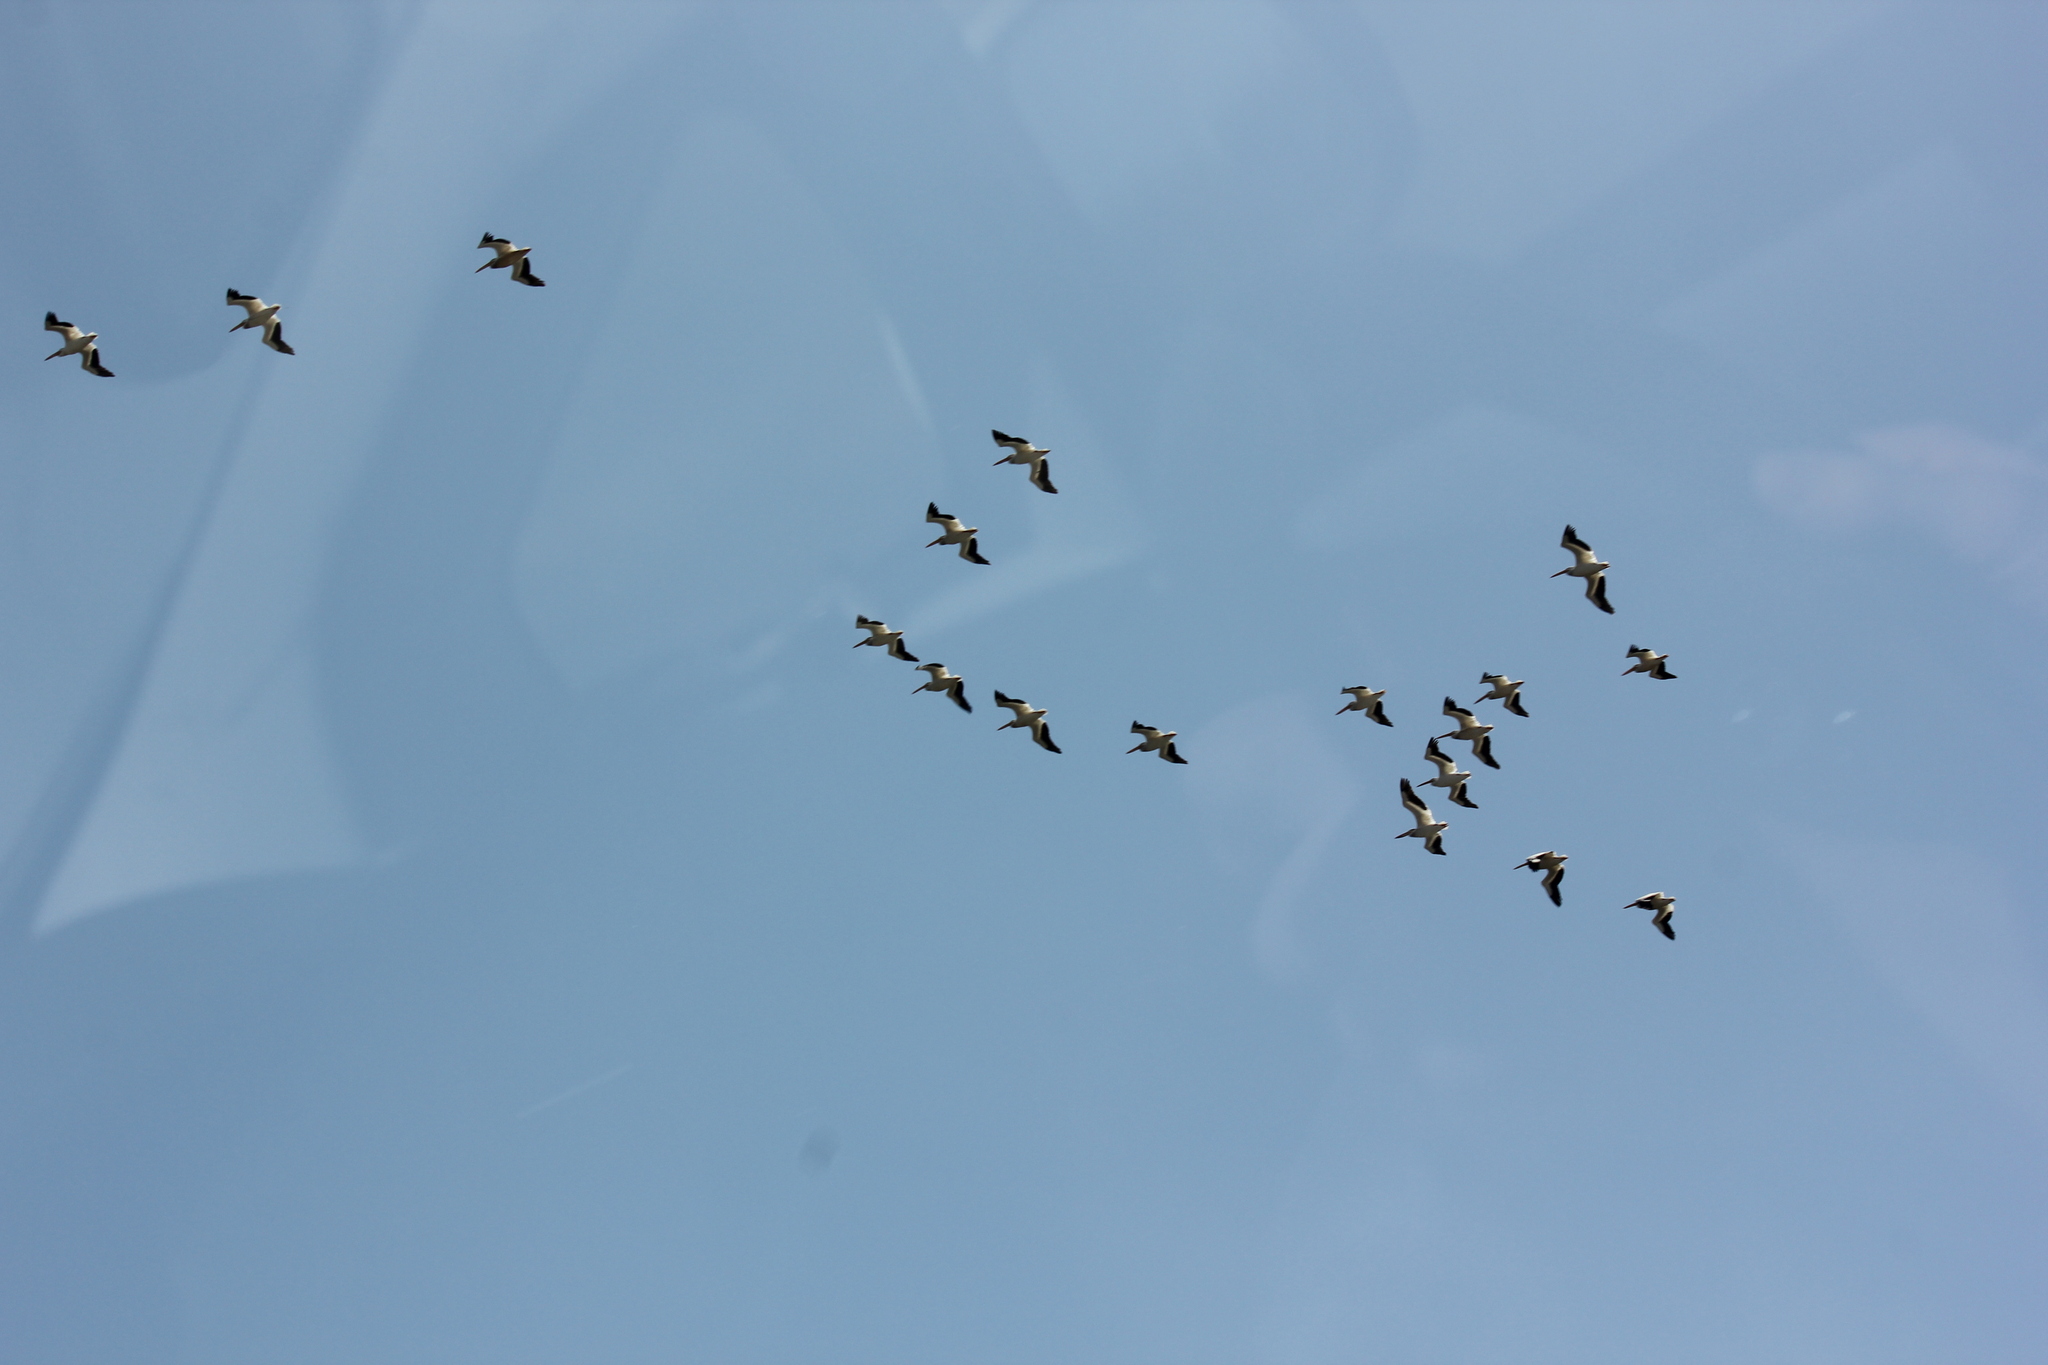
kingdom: Animalia
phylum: Chordata
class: Aves
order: Pelecaniformes
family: Pelecanidae
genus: Pelecanus
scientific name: Pelecanus erythrorhynchos
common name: American white pelican
